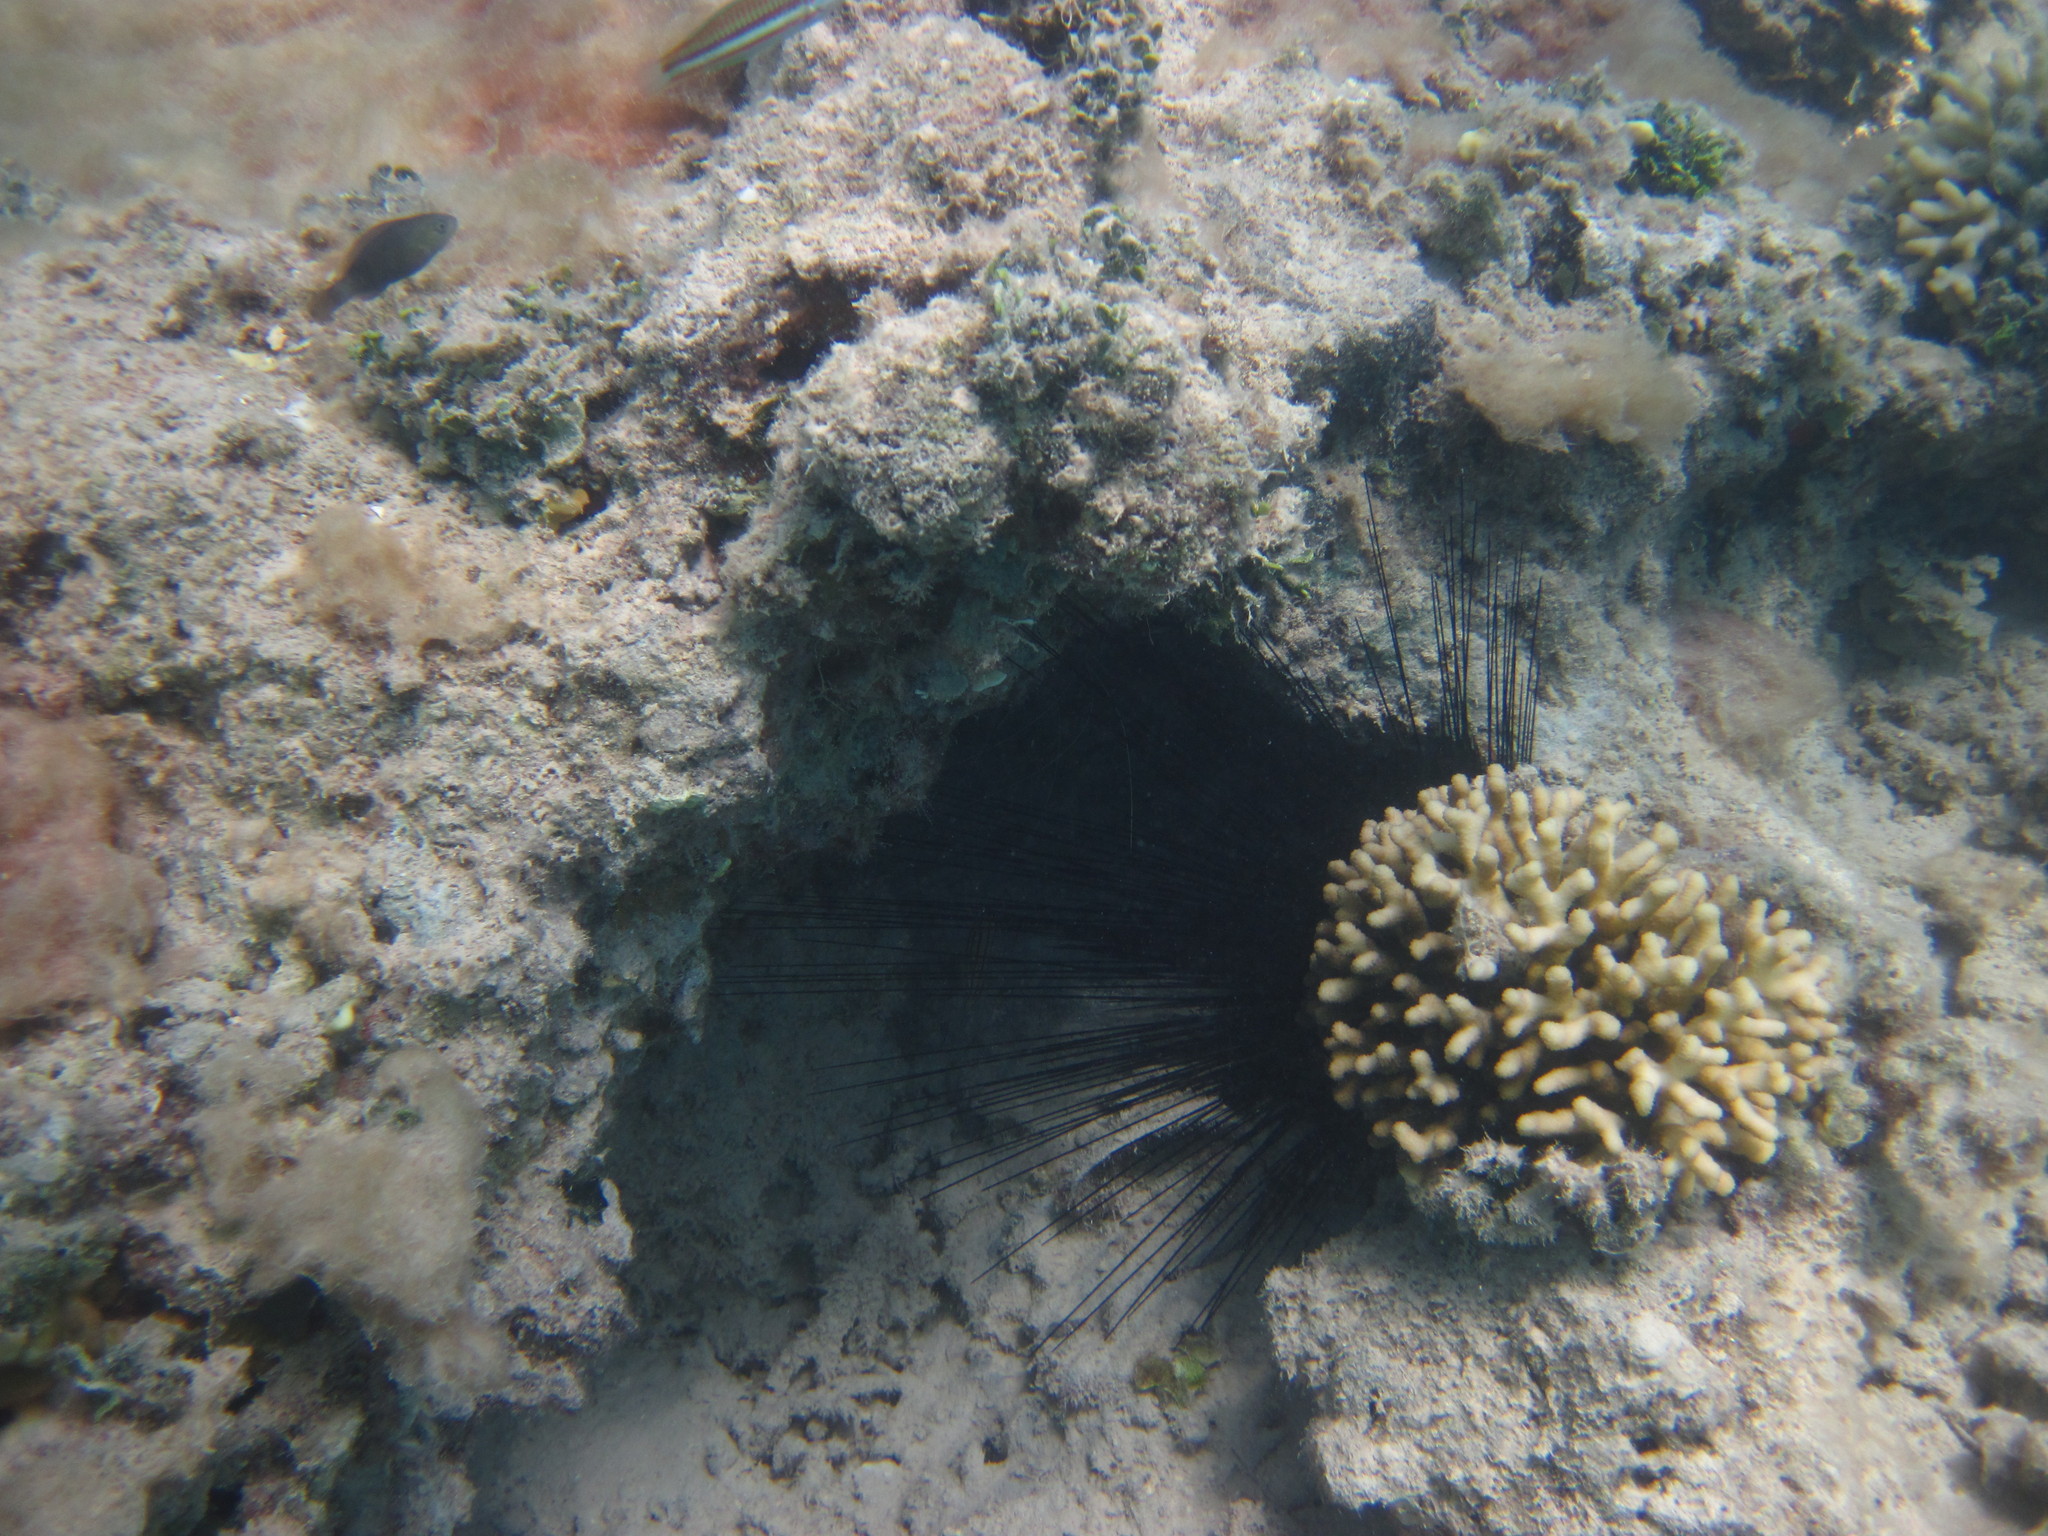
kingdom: Animalia
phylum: Echinodermata
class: Echinoidea
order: Diadematoida
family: Diadematidae
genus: Diadema
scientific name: Diadema
